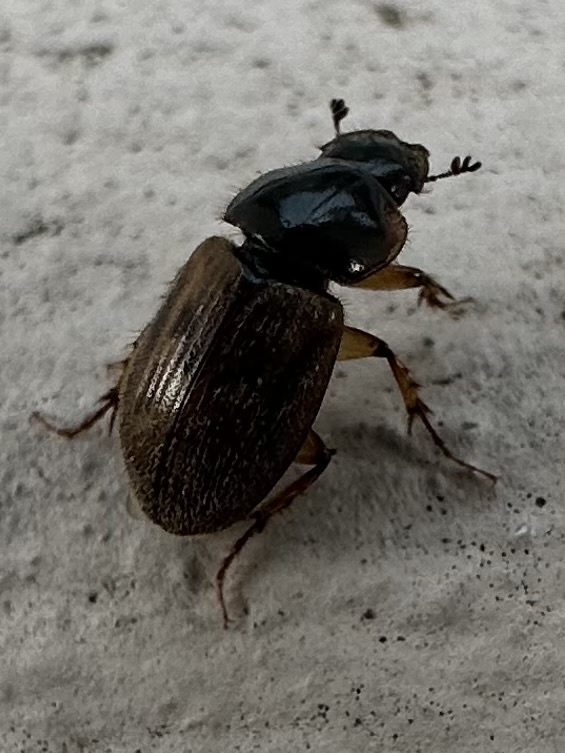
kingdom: Animalia
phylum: Arthropoda
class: Insecta
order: Coleoptera
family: Scarabaeidae
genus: Nimbus
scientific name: Nimbus contaminatus
